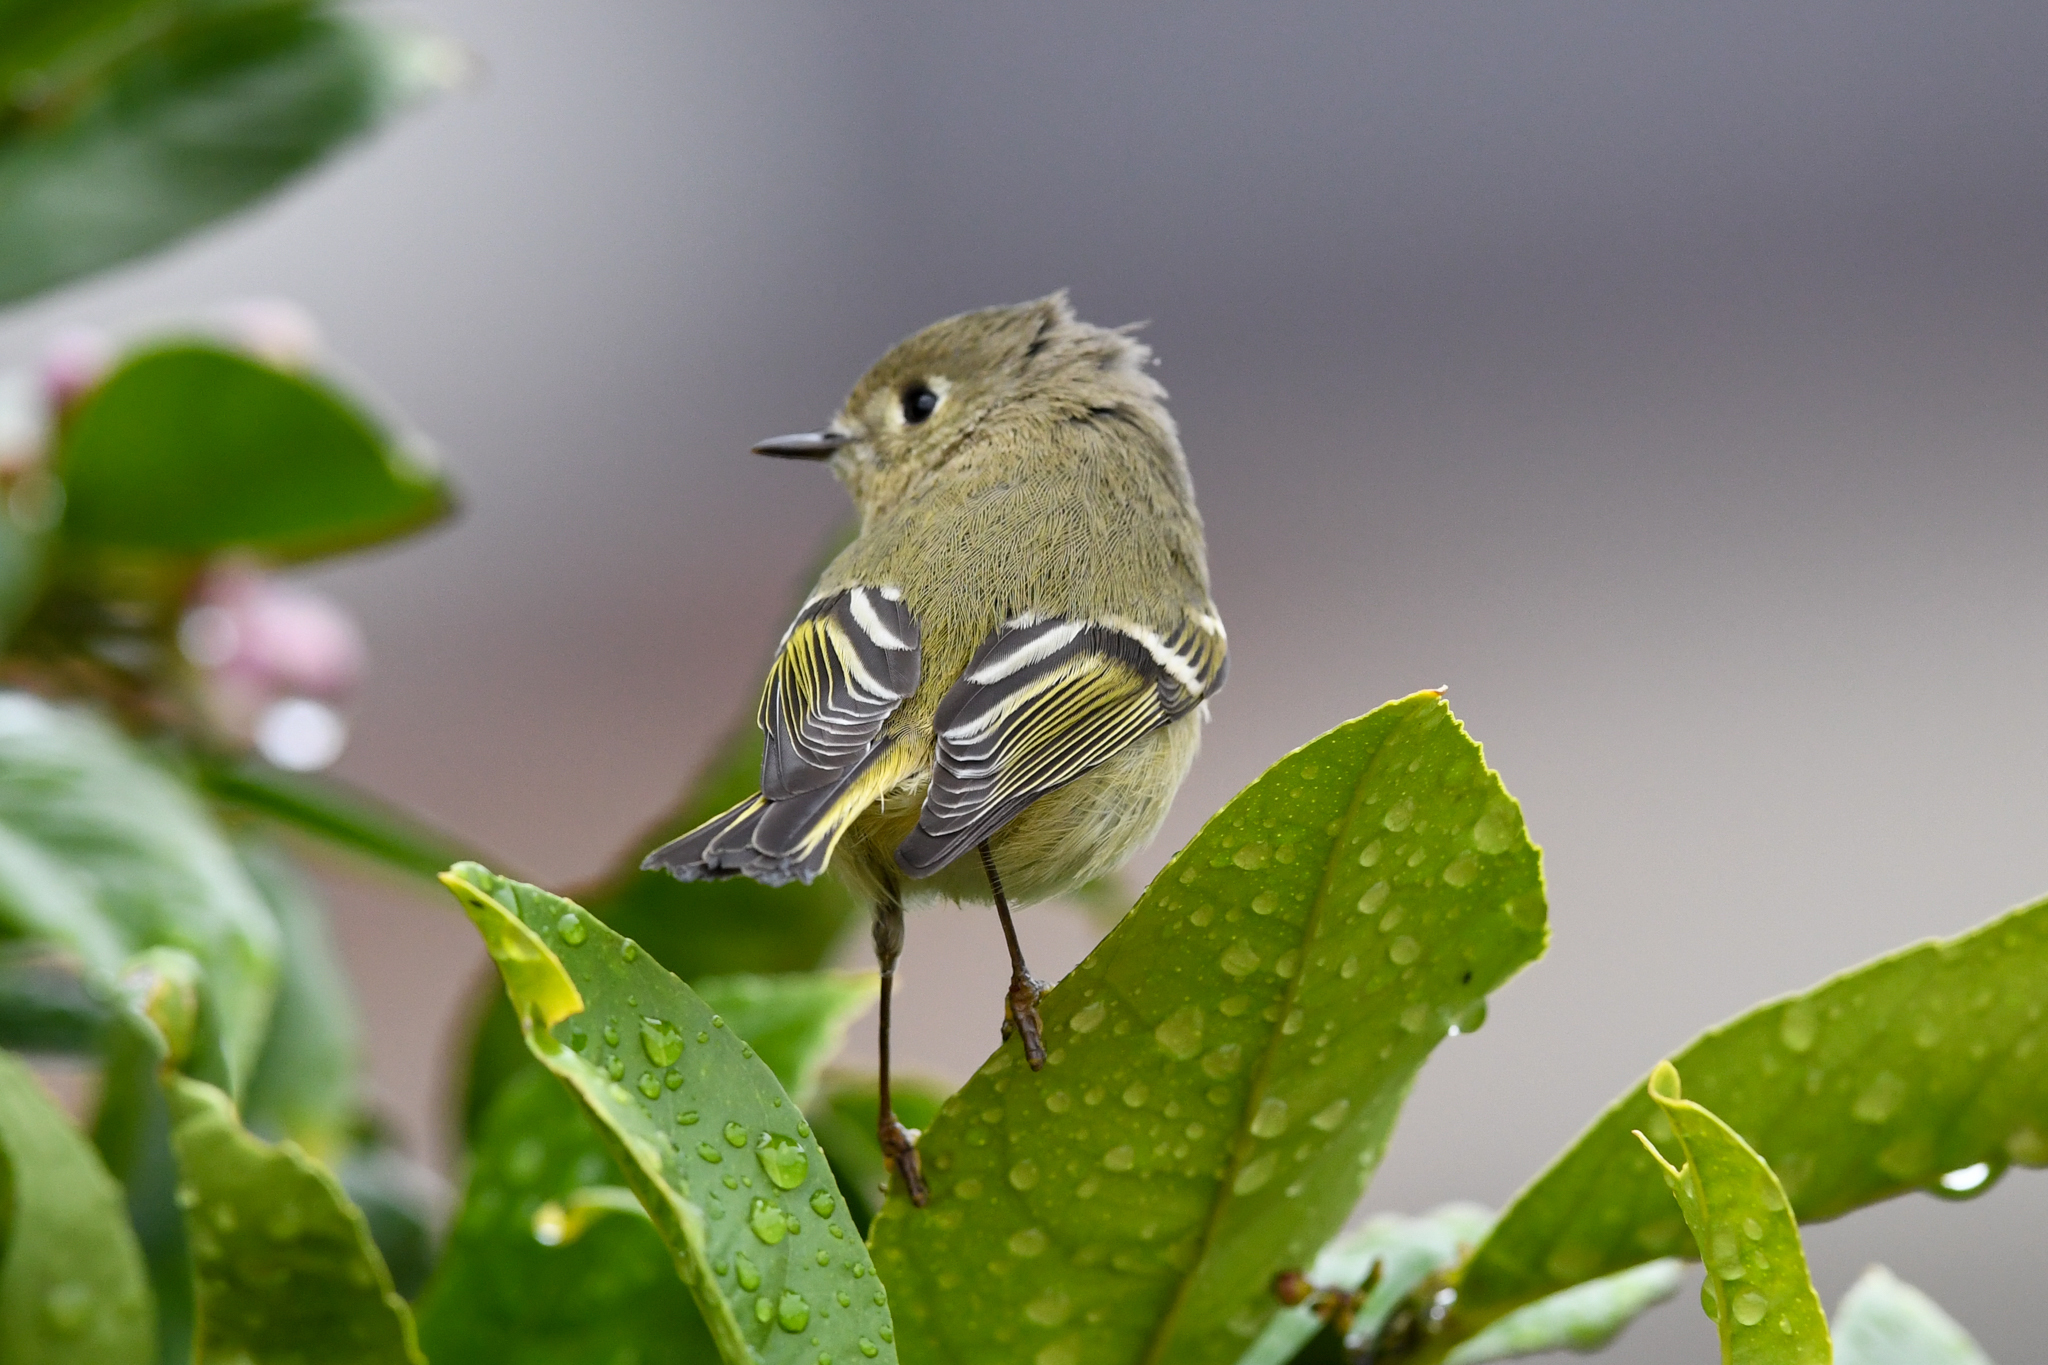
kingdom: Animalia
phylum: Chordata
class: Aves
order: Passeriformes
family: Regulidae
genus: Regulus
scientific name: Regulus calendula
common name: Ruby-crowned kinglet
